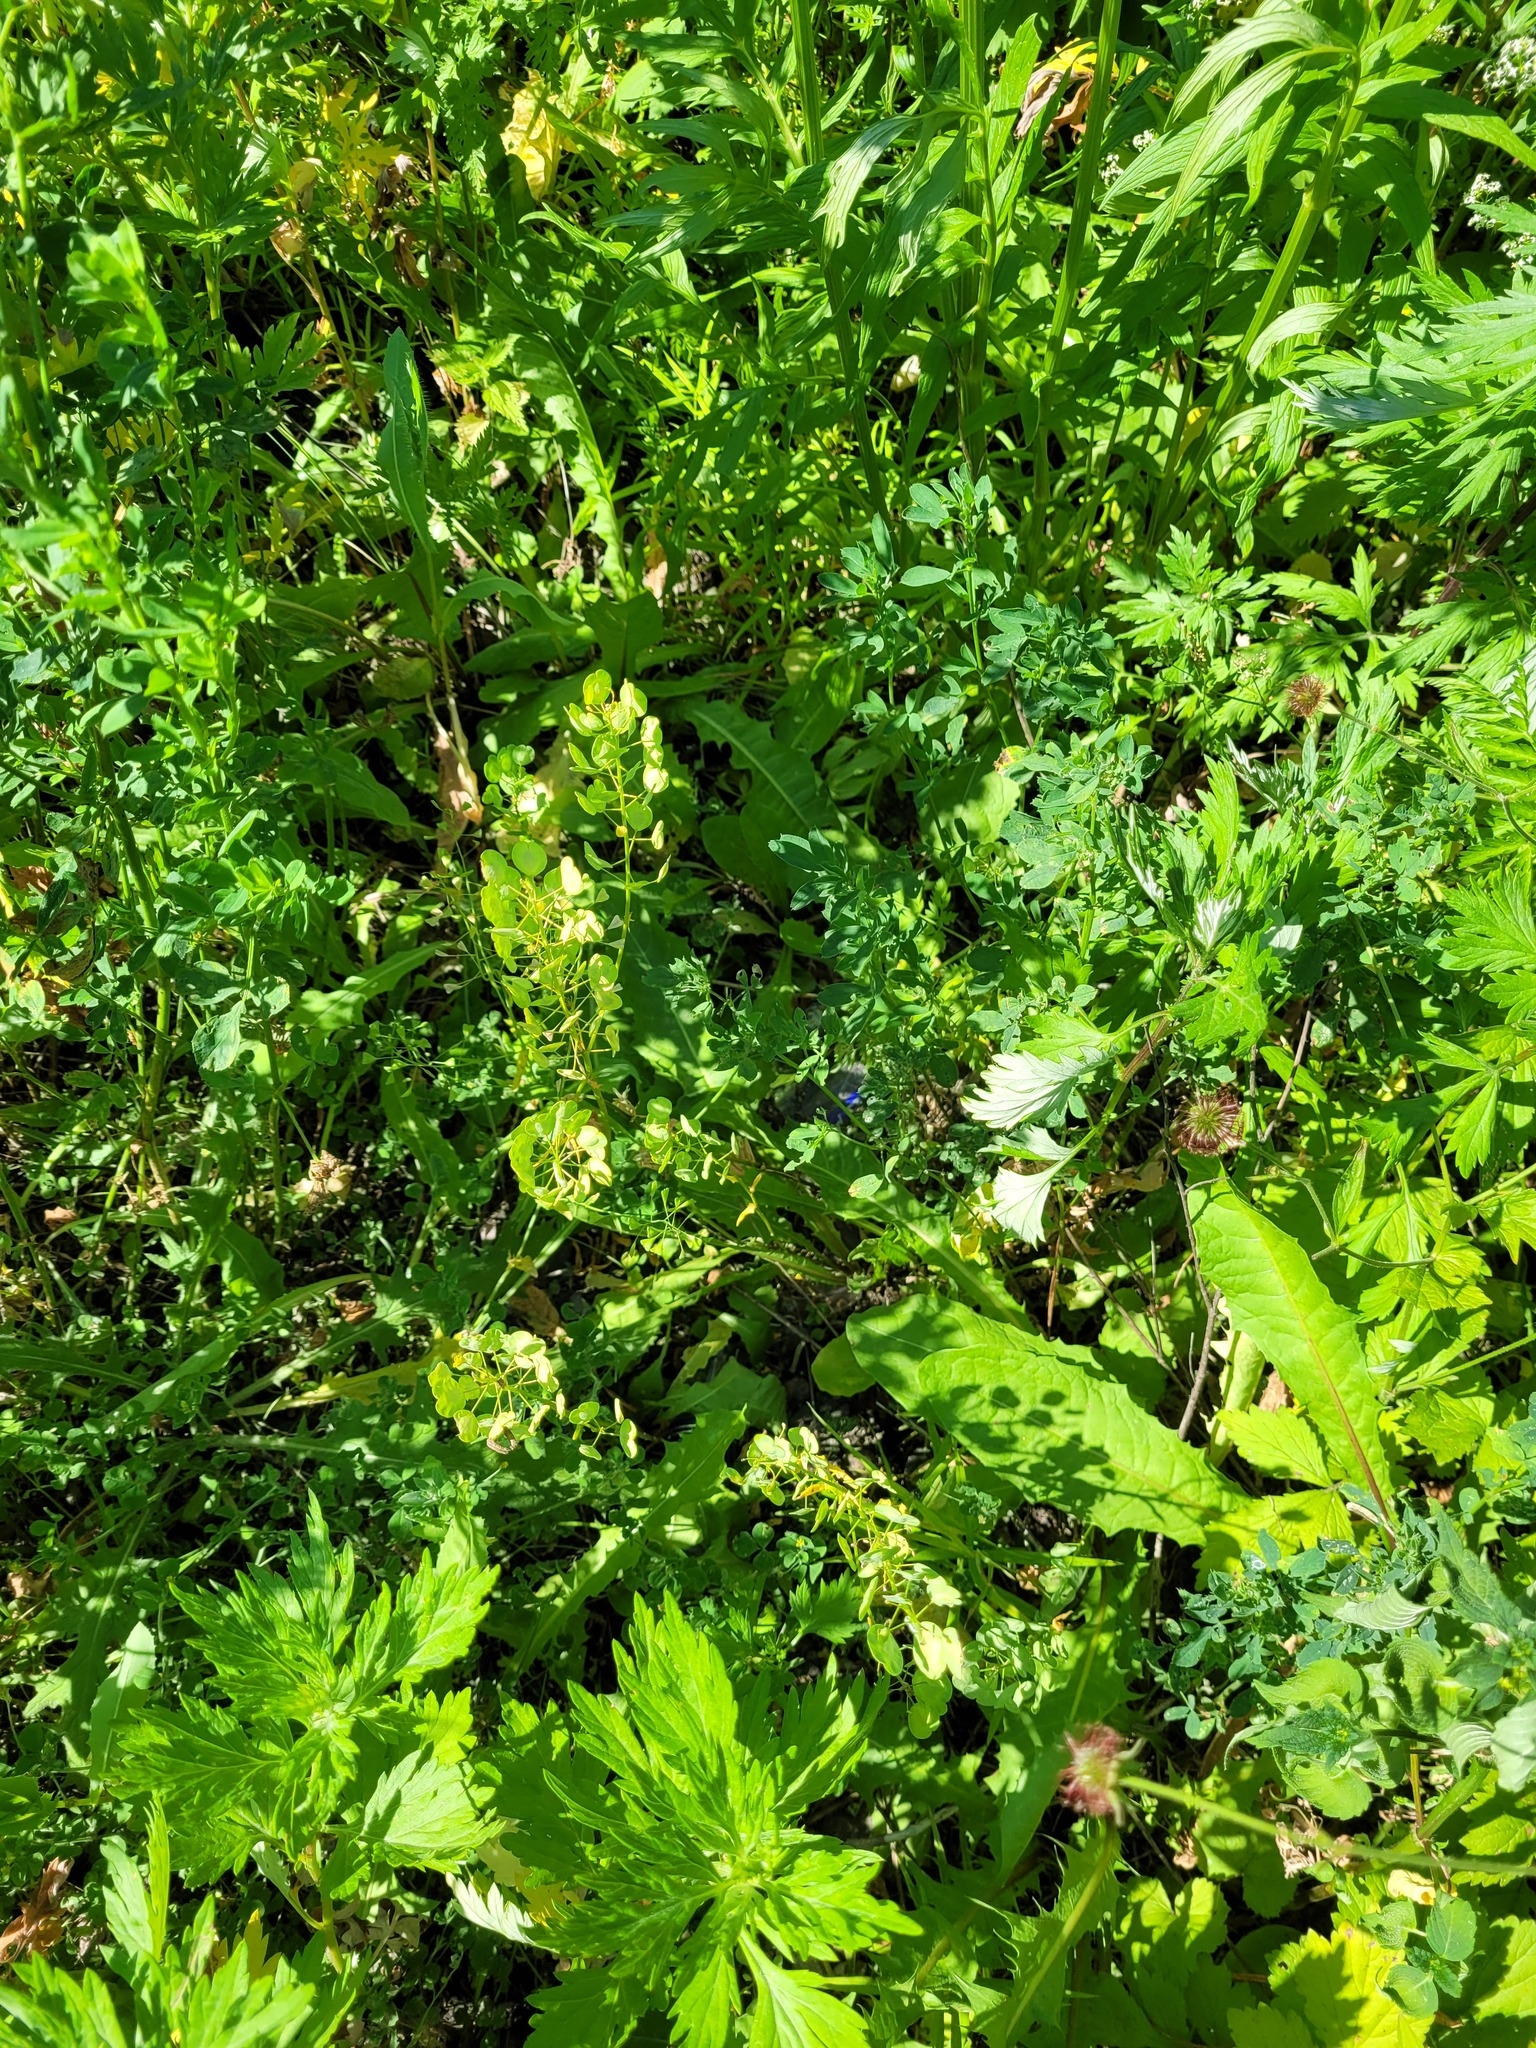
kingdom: Plantae
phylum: Tracheophyta
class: Magnoliopsida
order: Brassicales
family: Brassicaceae
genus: Thlaspi
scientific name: Thlaspi arvense
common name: Field pennycress
